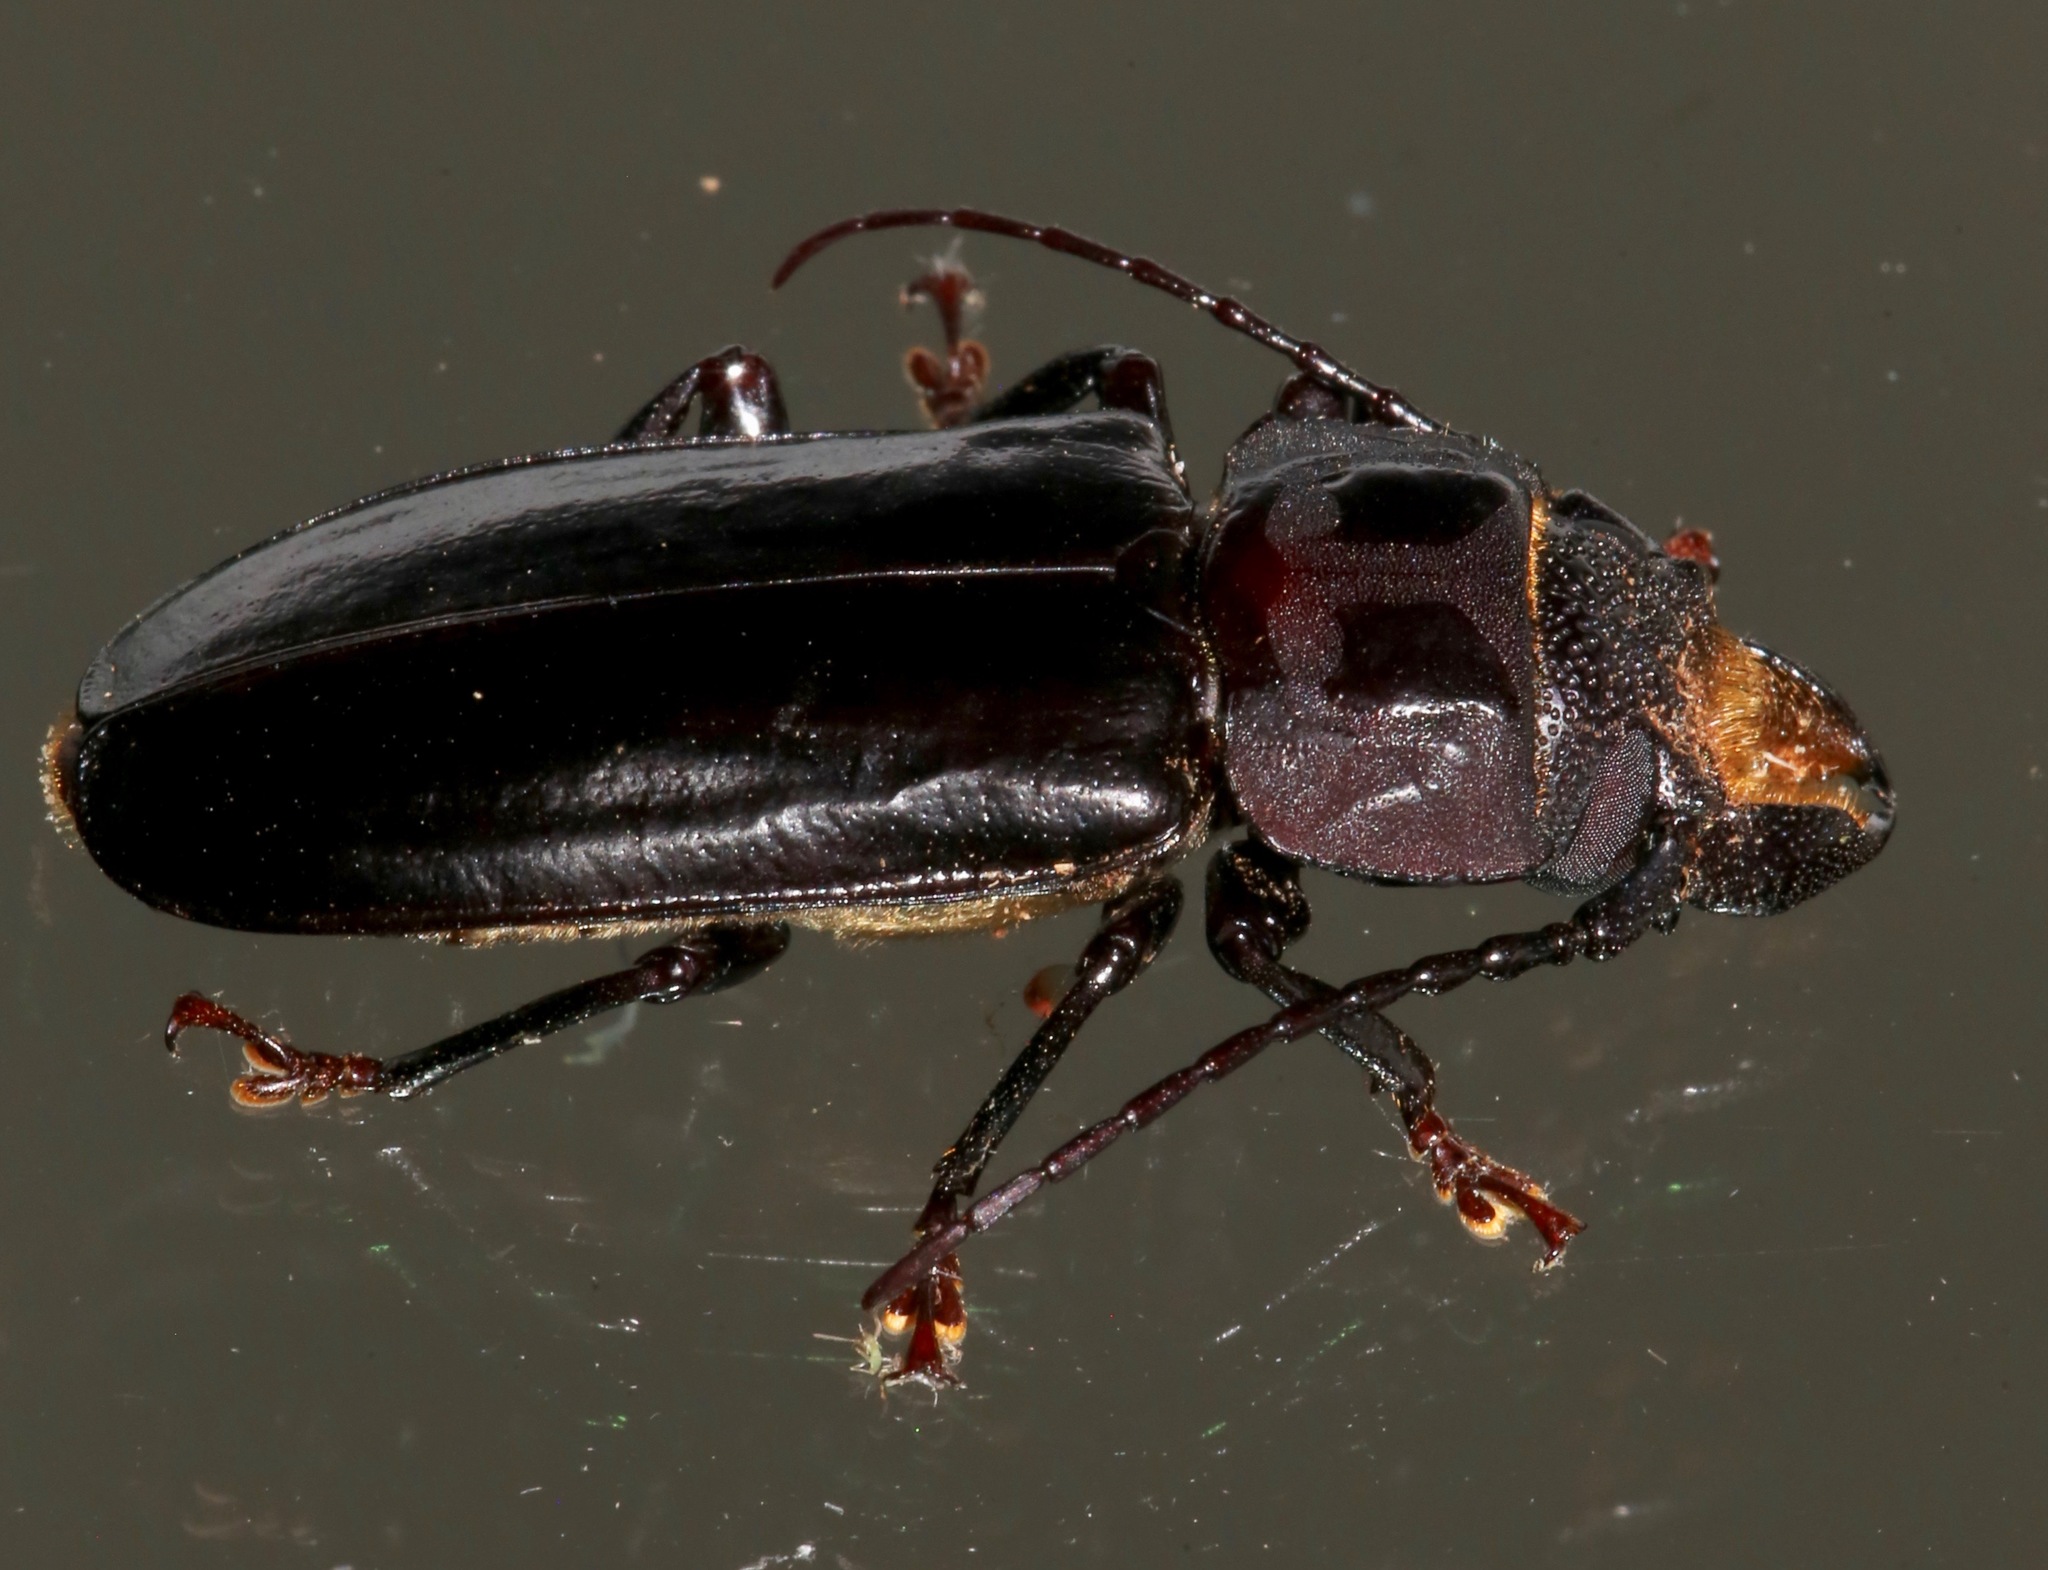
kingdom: Animalia
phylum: Arthropoda
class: Insecta
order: Coleoptera
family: Cerambycidae
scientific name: Cerambycidae
